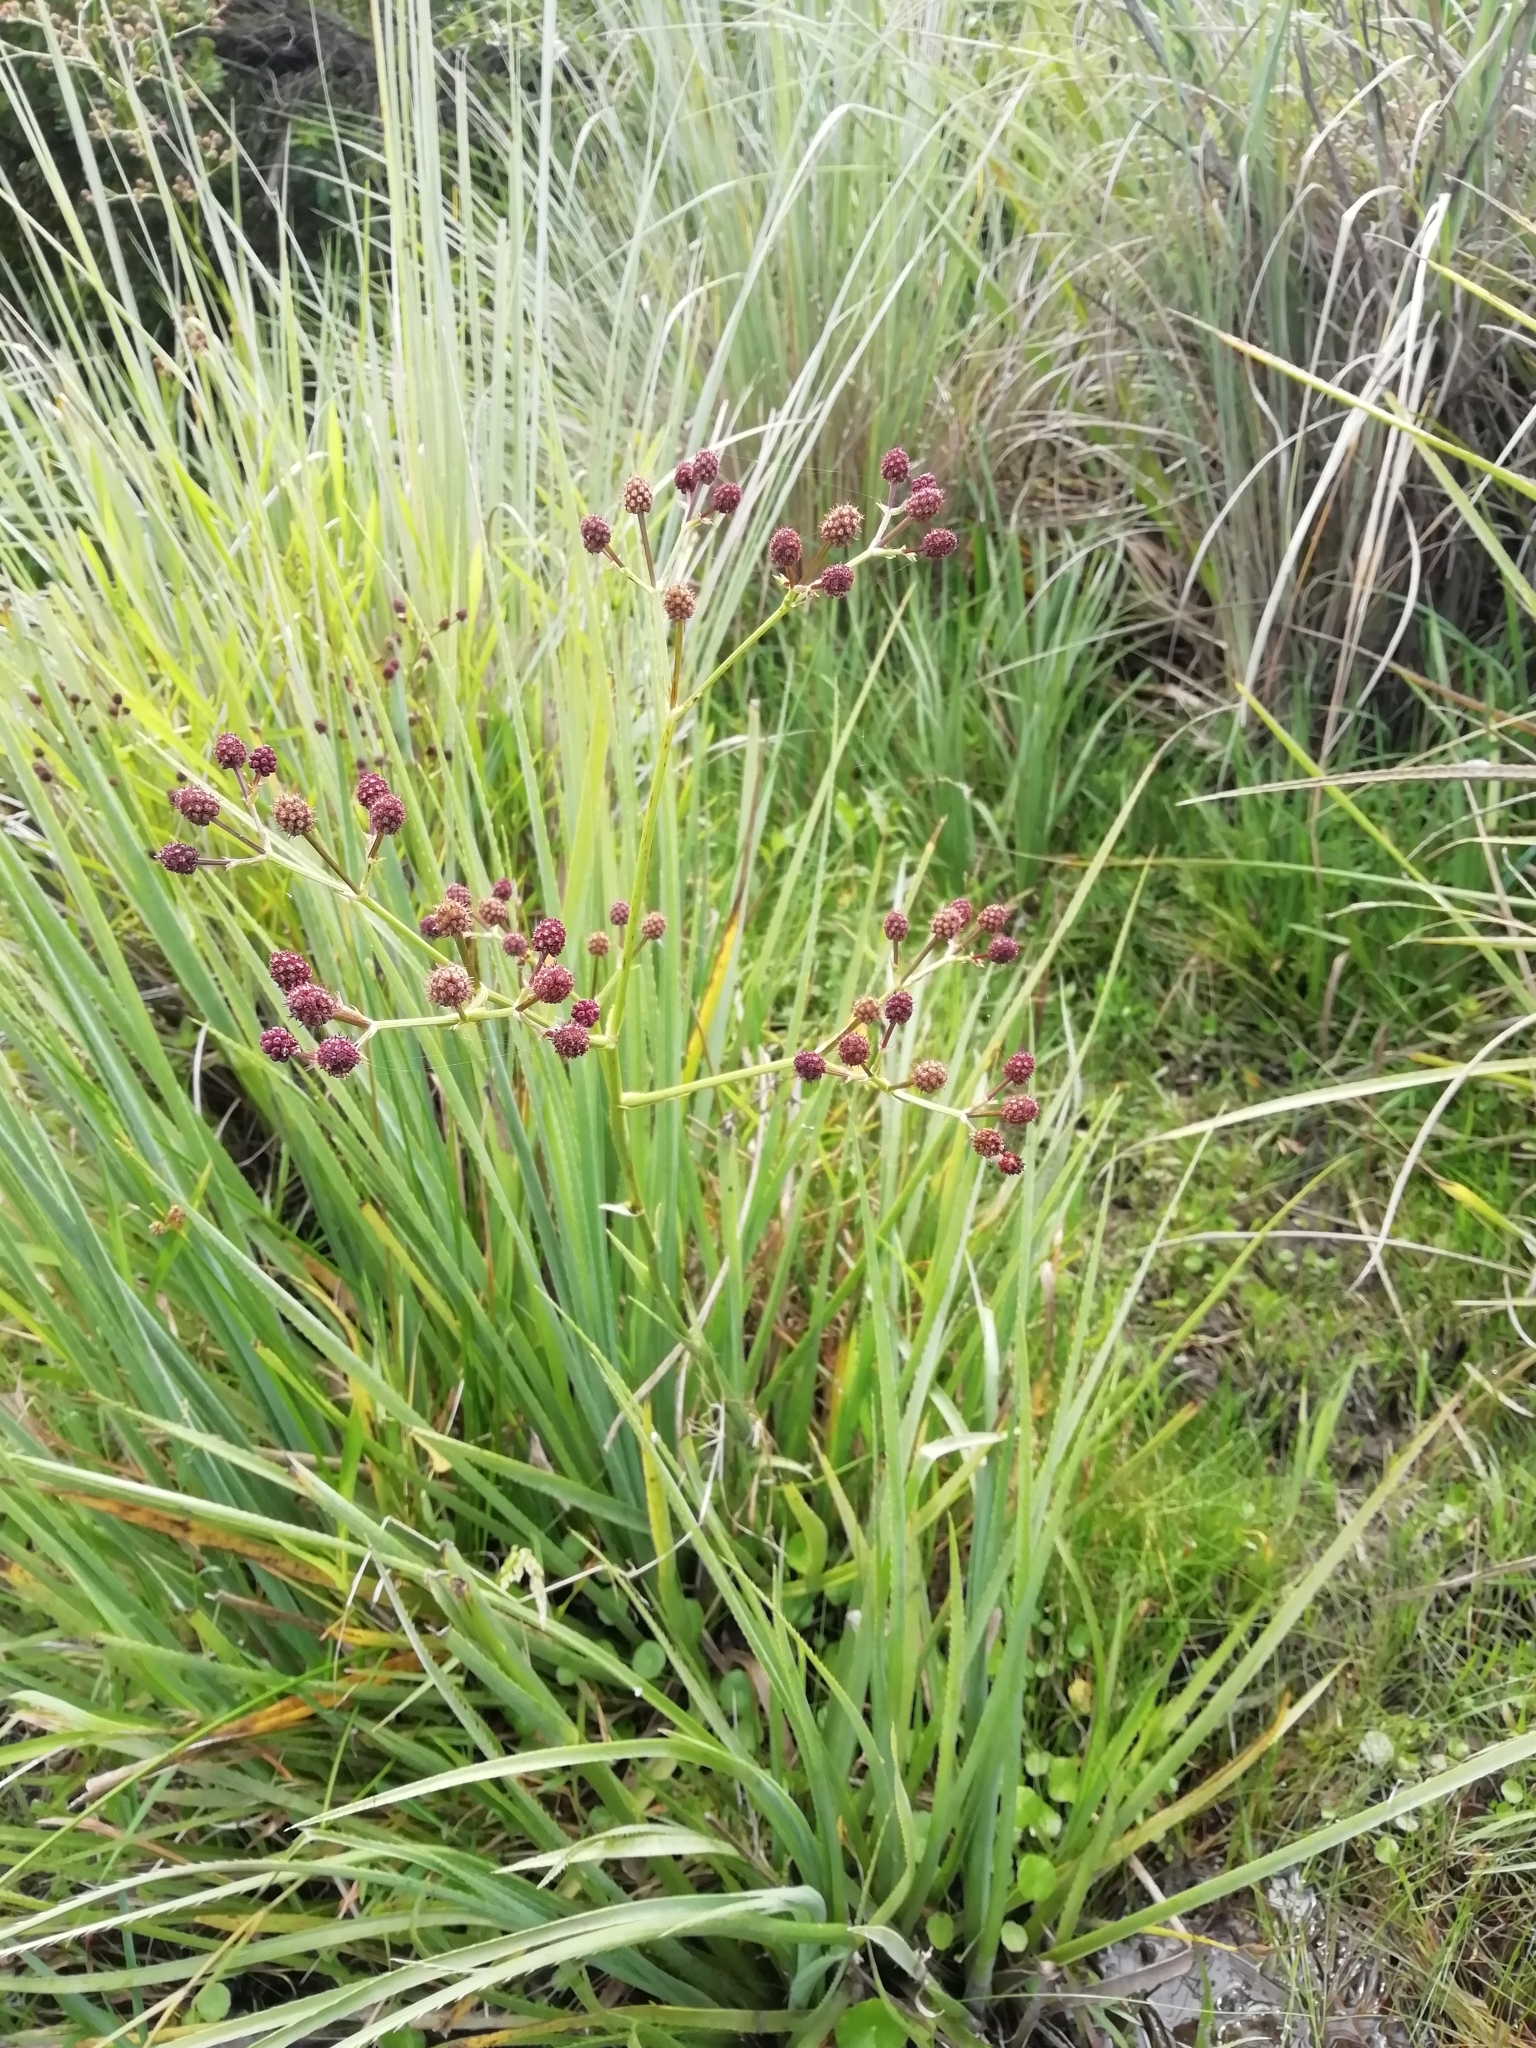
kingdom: Plantae
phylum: Tracheophyta
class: Magnoliopsida
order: Apiales
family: Apiaceae
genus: Eryngium
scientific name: Eryngium pandanifolium
